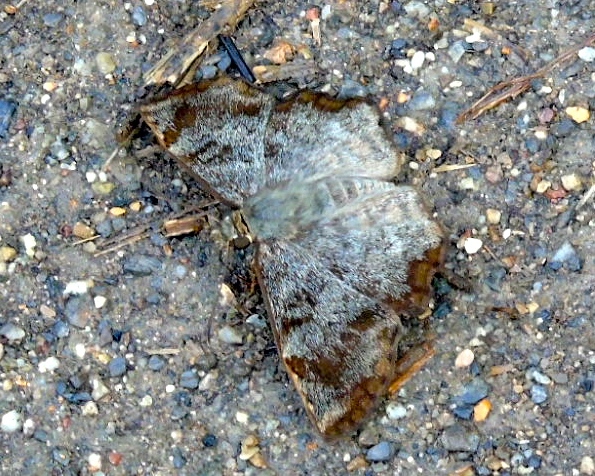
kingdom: Animalia
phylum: Arthropoda
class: Insecta
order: Lepidoptera
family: Hesperiidae
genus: Antigonus
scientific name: Antigonus erosus
